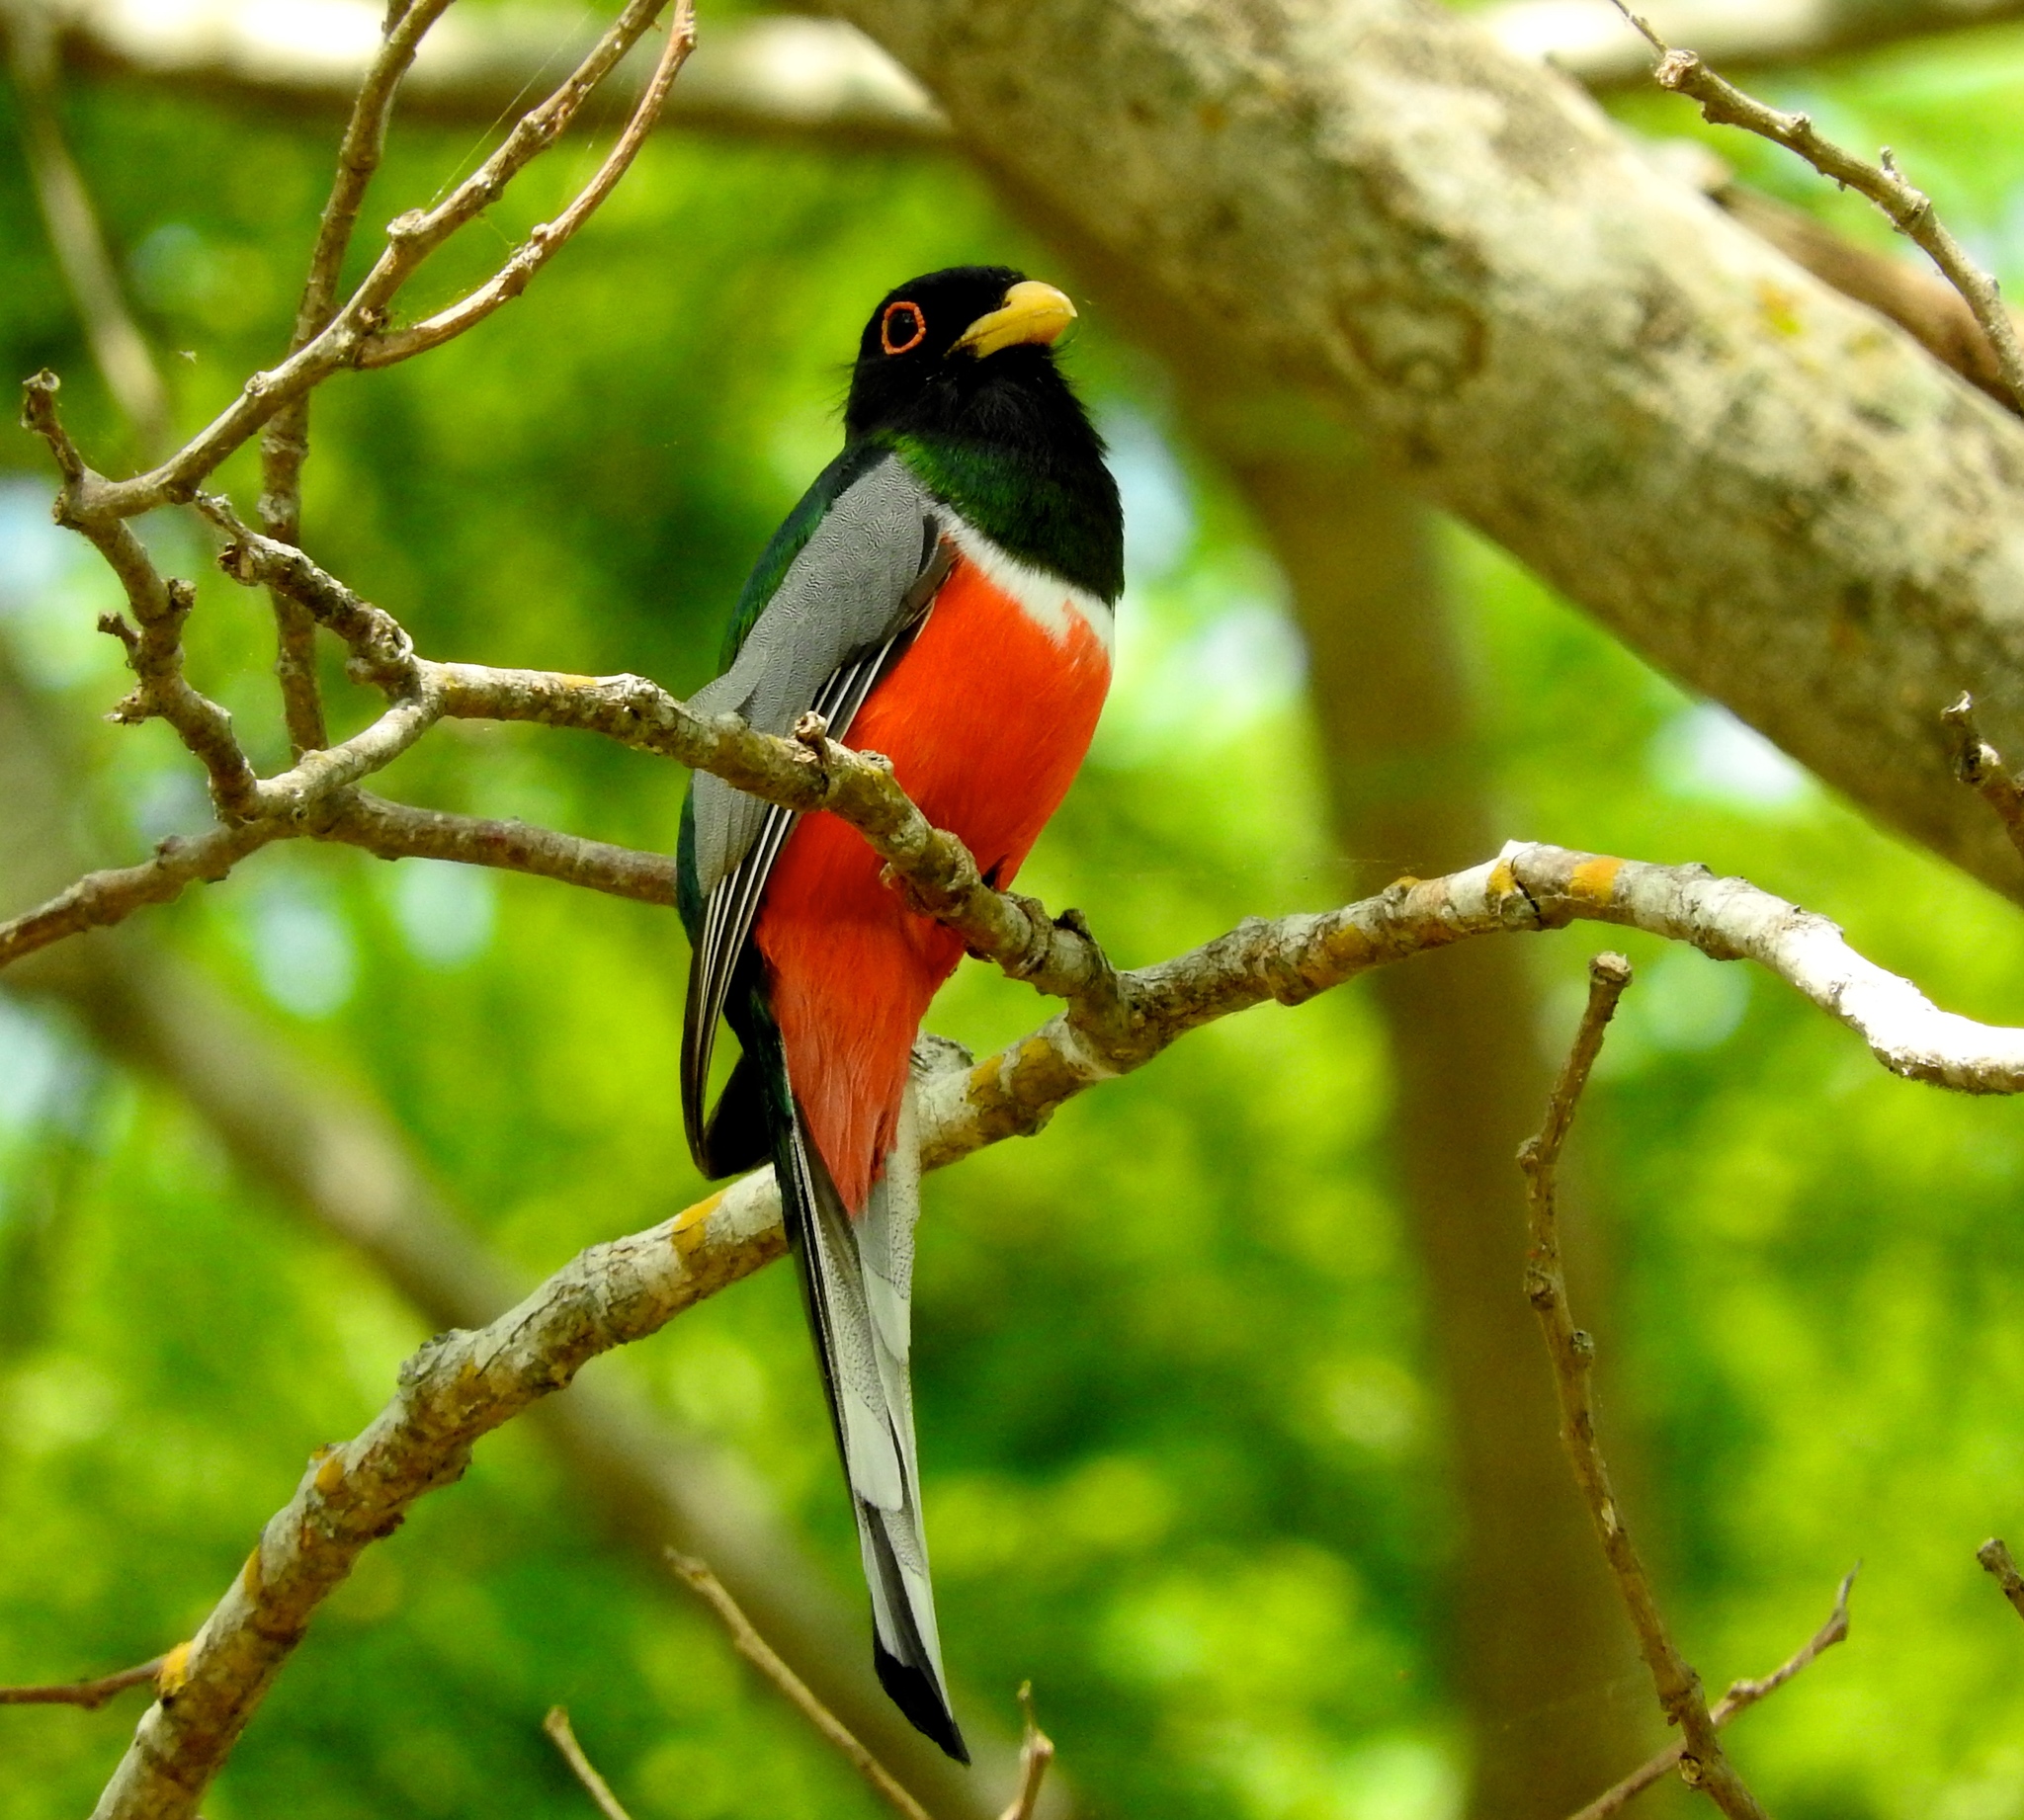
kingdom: Animalia
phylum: Chordata
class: Aves
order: Trogoniformes
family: Trogonidae
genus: Trogon
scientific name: Trogon elegans
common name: Elegant trogon
